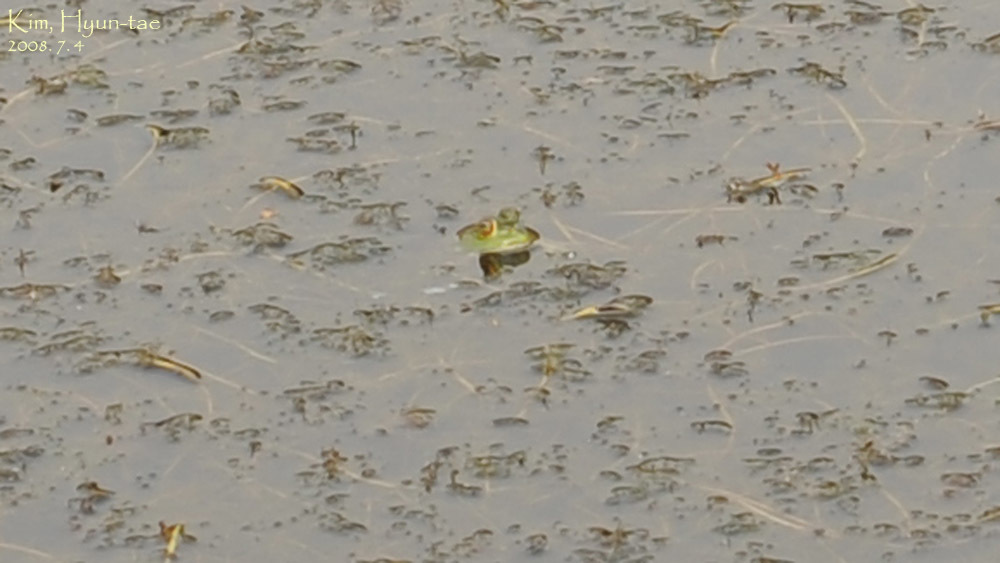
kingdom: Animalia
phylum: Chordata
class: Amphibia
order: Anura
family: Ranidae
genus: Lithobates
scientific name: Lithobates catesbeianus
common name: American bullfrog
